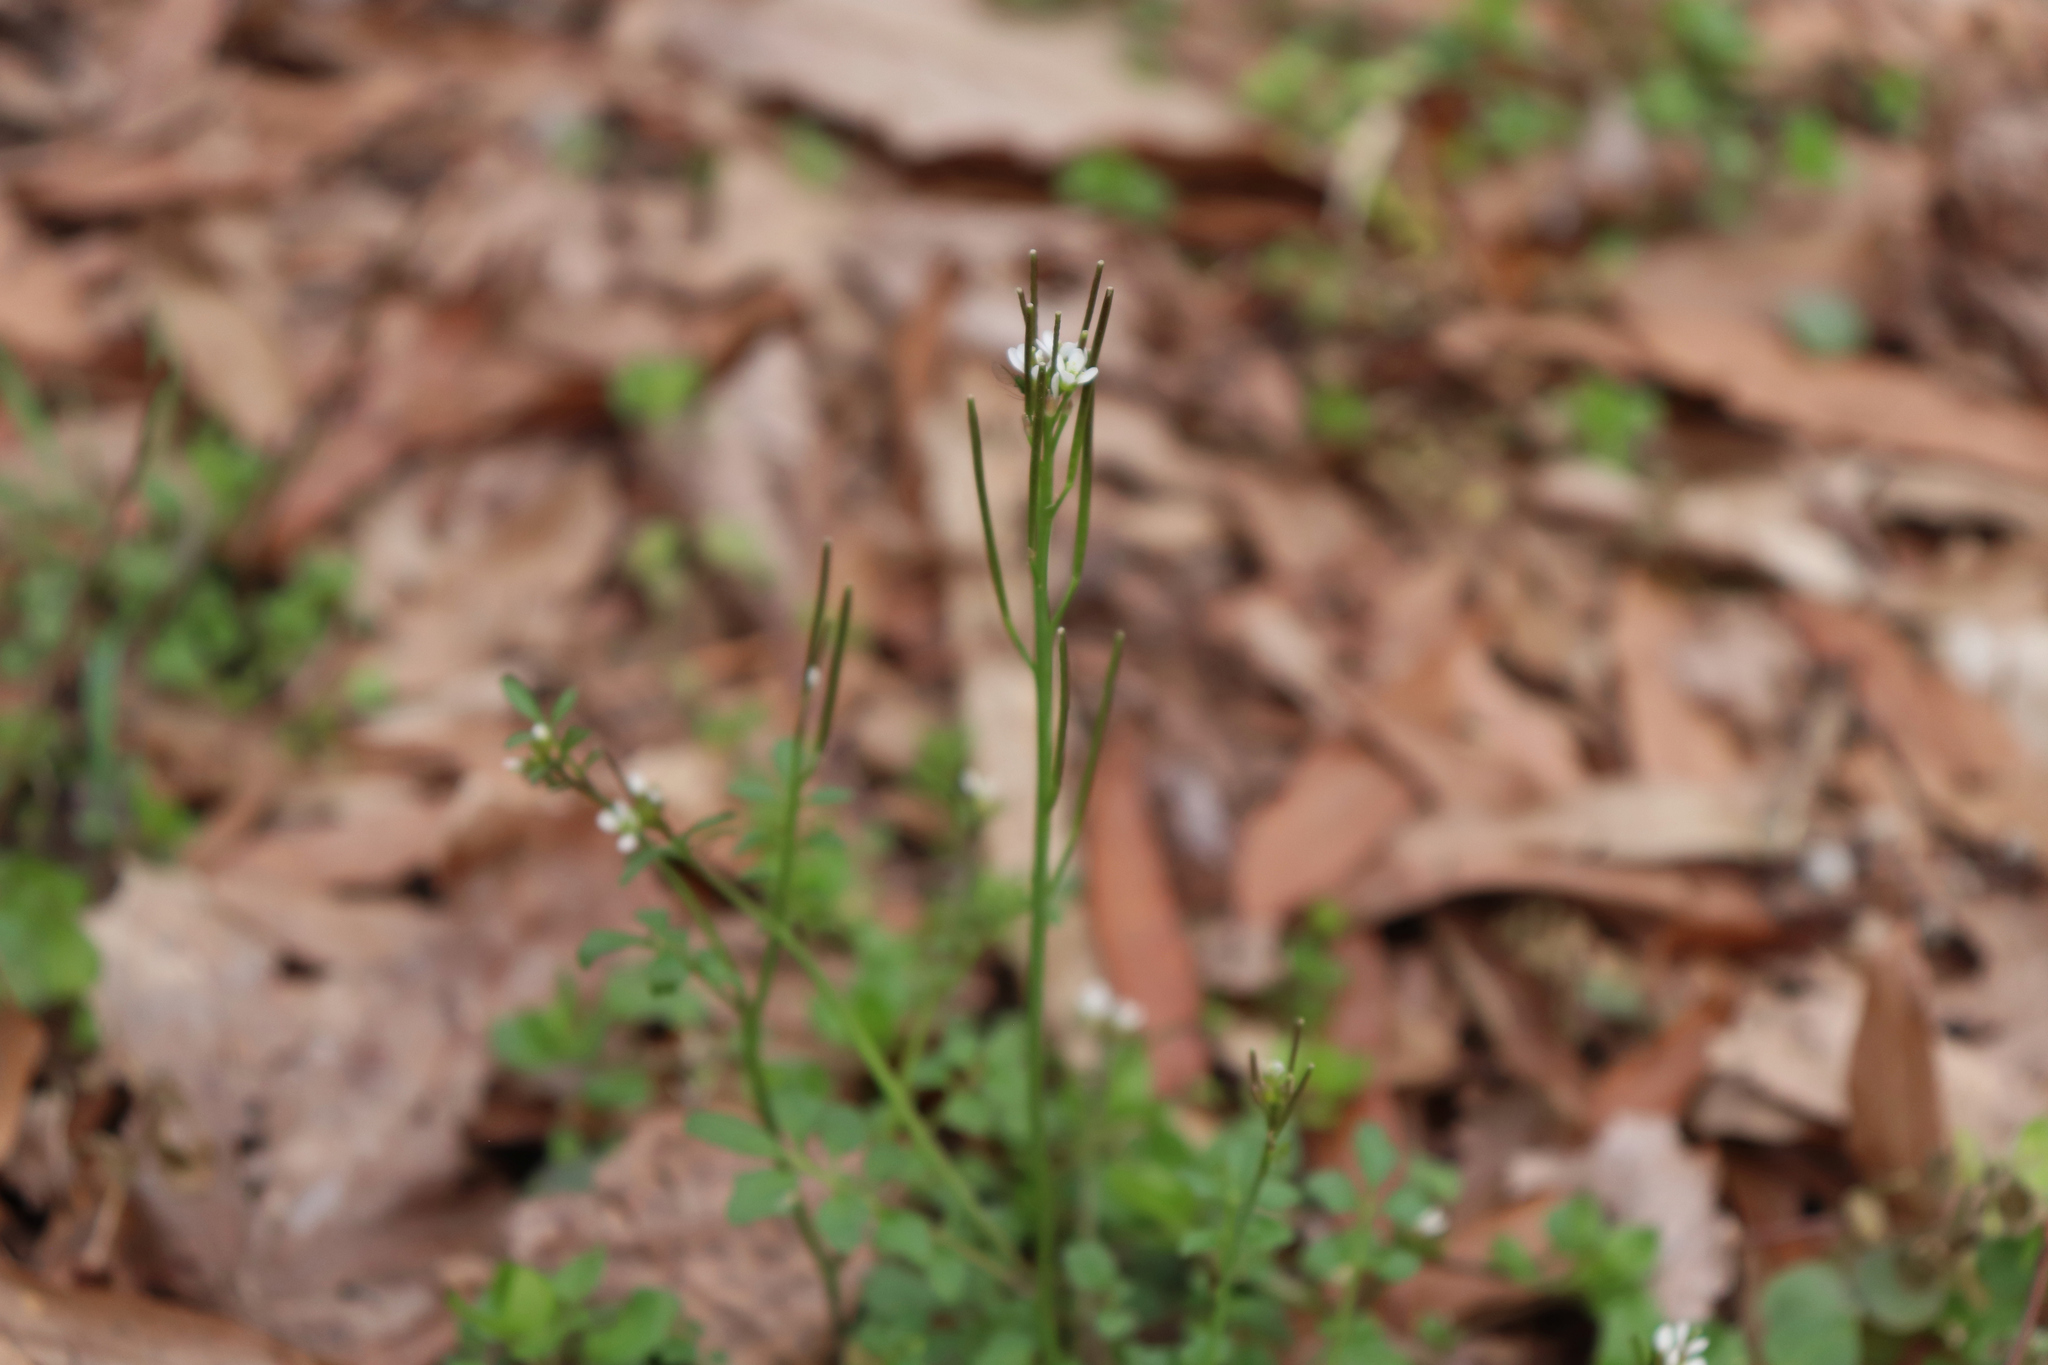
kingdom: Plantae
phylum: Tracheophyta
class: Magnoliopsida
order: Brassicales
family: Brassicaceae
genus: Cardamine
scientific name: Cardamine hirsuta
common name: Hairy bittercress
